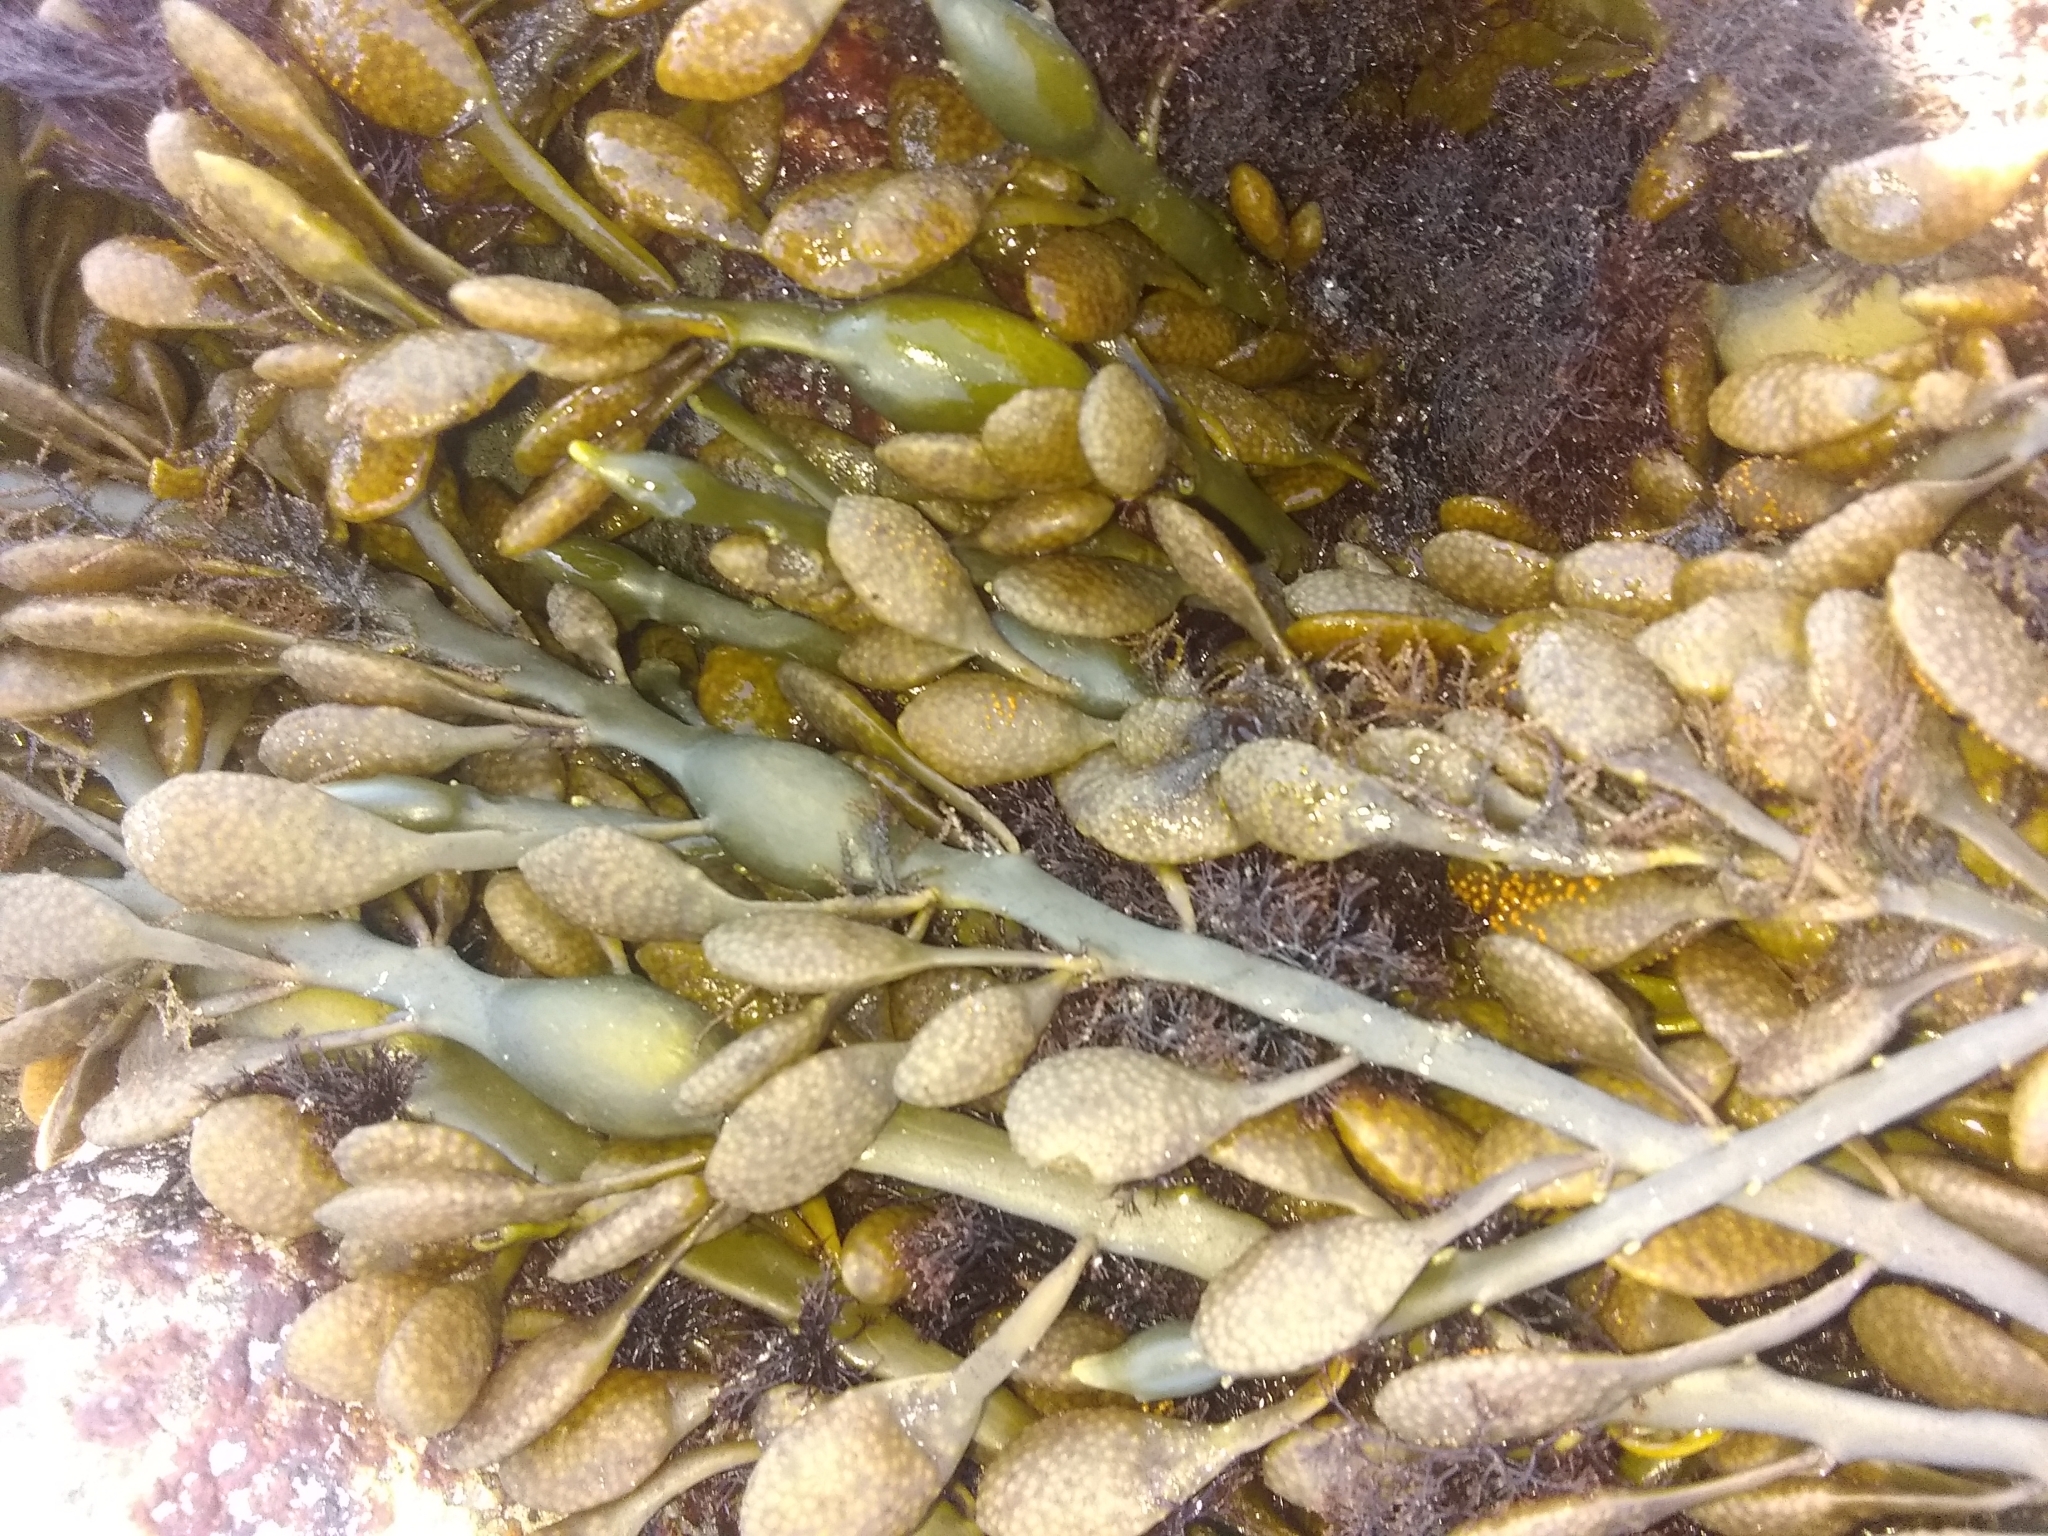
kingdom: Chromista
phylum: Ochrophyta
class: Phaeophyceae
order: Fucales
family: Fucaceae
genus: Ascophyllum
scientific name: Ascophyllum nodosum
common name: Knotted wrack
